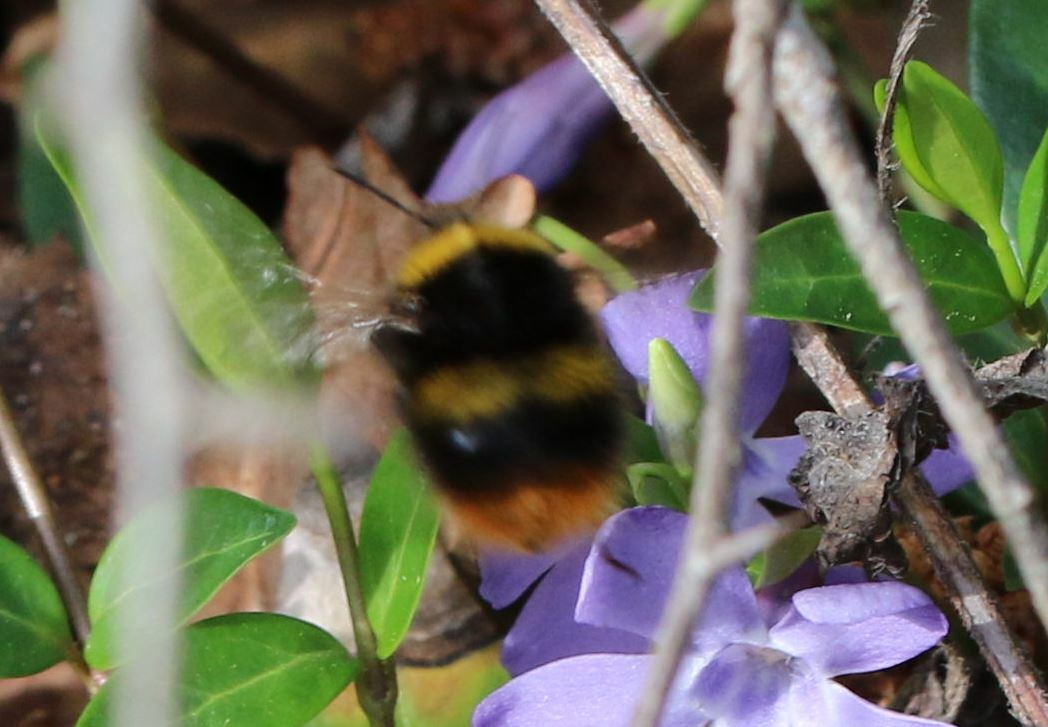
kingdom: Animalia
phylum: Arthropoda
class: Insecta
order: Hymenoptera
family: Apidae
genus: Bombus
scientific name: Bombus pratorum
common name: Early humble-bee
